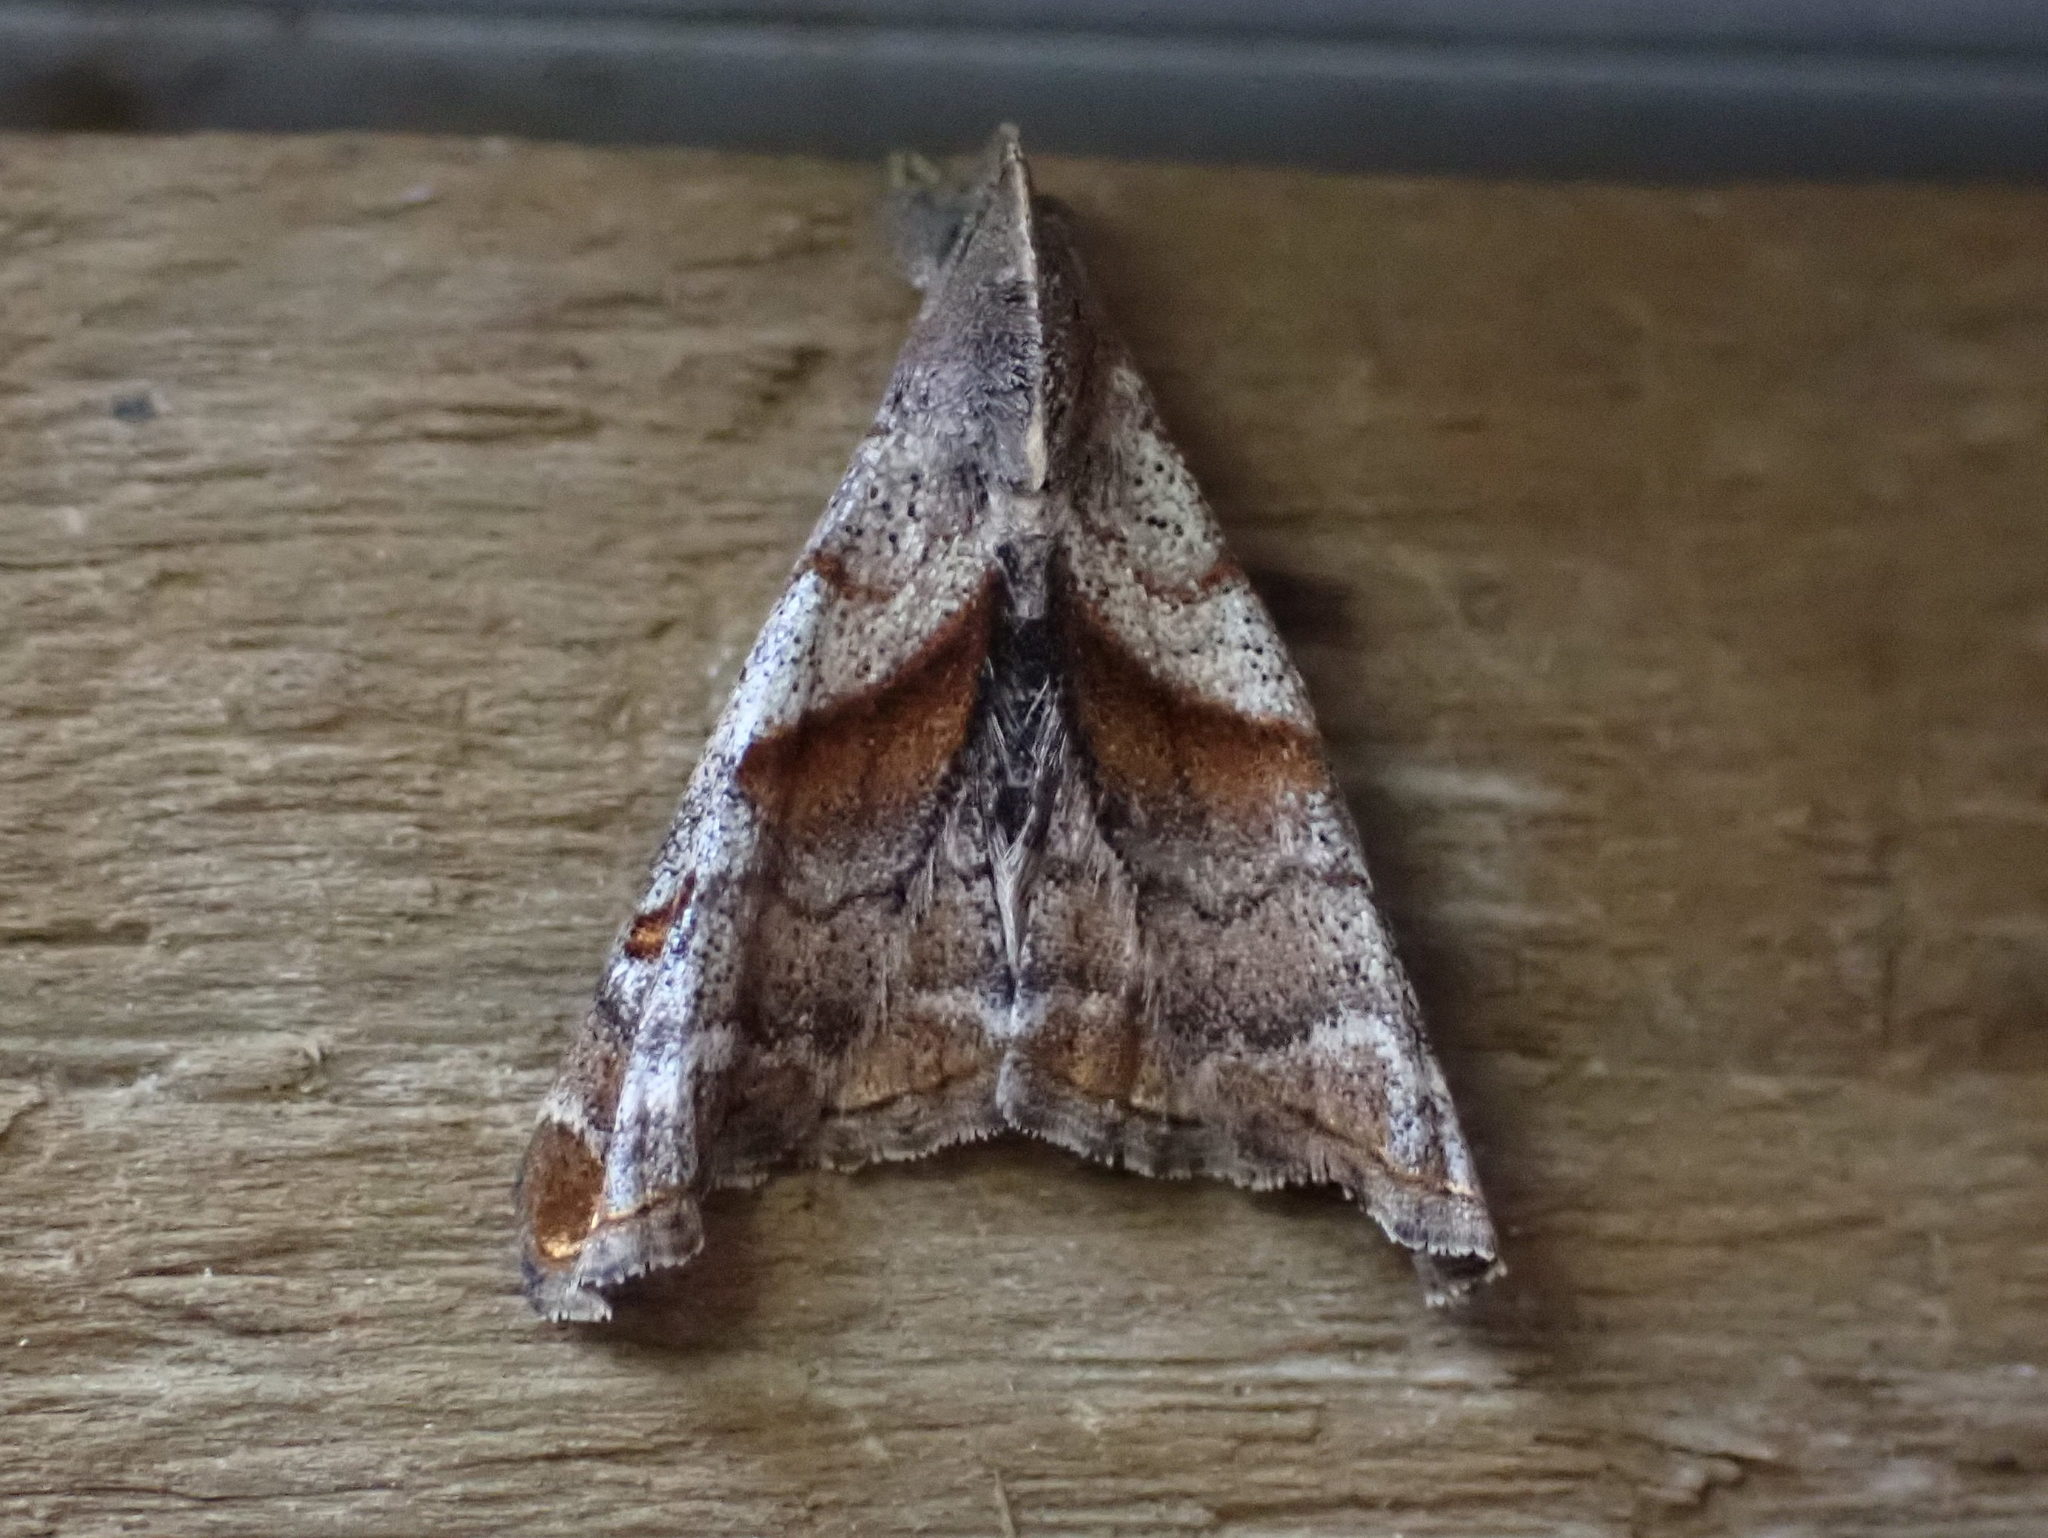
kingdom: Animalia
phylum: Arthropoda
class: Insecta
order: Lepidoptera
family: Erebidae
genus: Palthis
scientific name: Palthis angulalis
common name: Dark-spotted palthis moth
